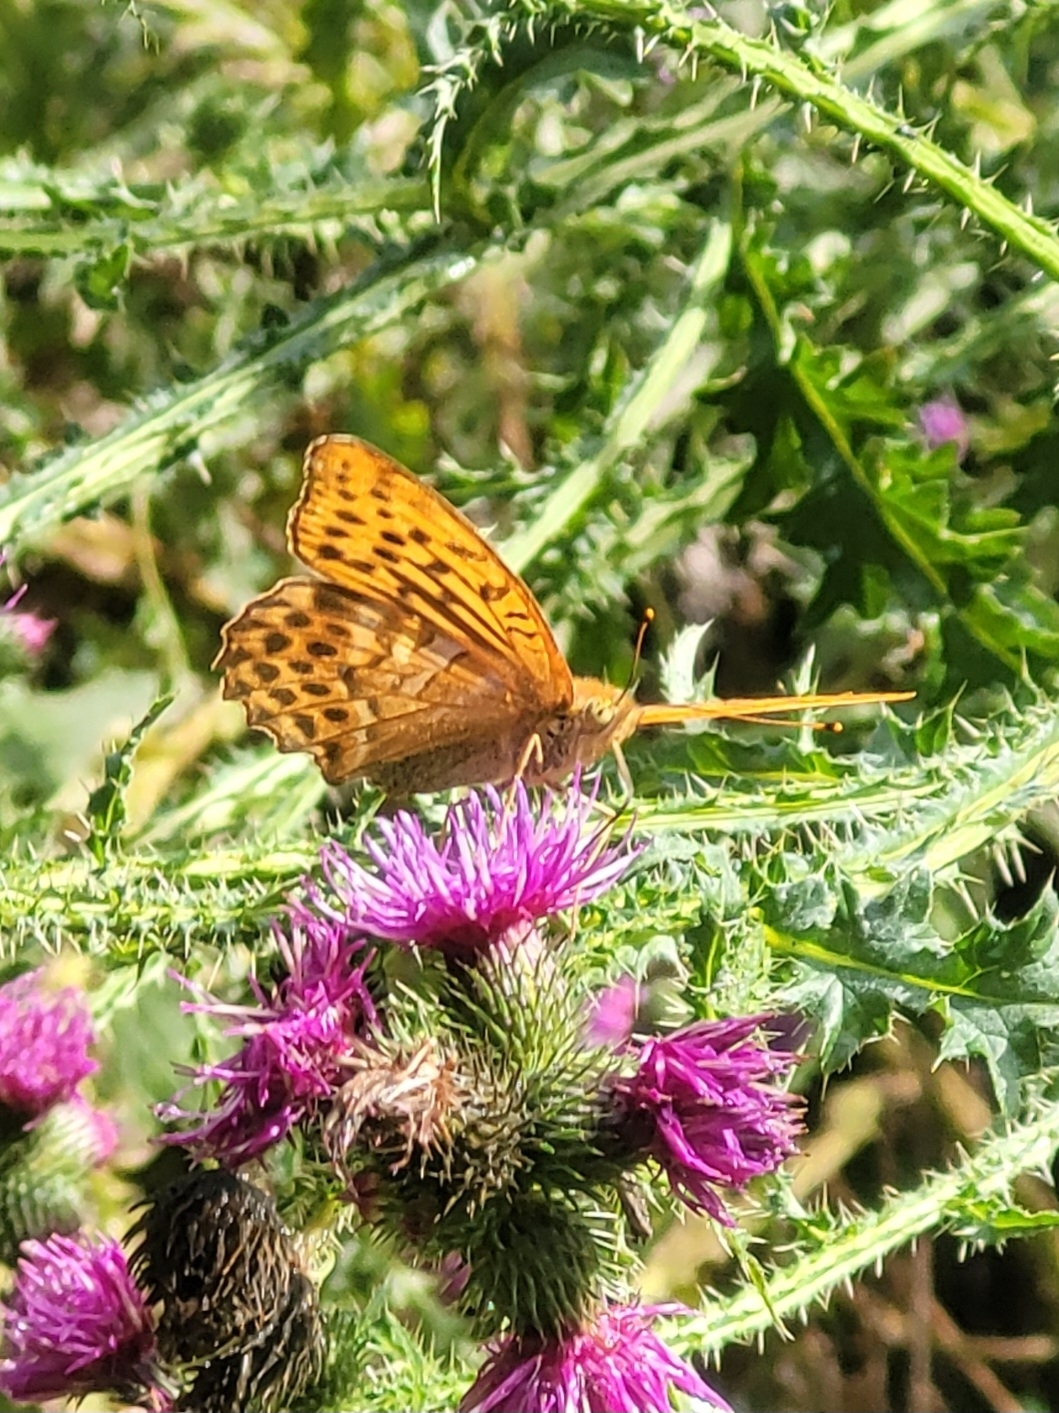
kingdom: Animalia
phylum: Arthropoda
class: Insecta
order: Lepidoptera
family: Nymphalidae
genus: Argynnis
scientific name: Argynnis paphia
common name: Silver-washed fritillary
